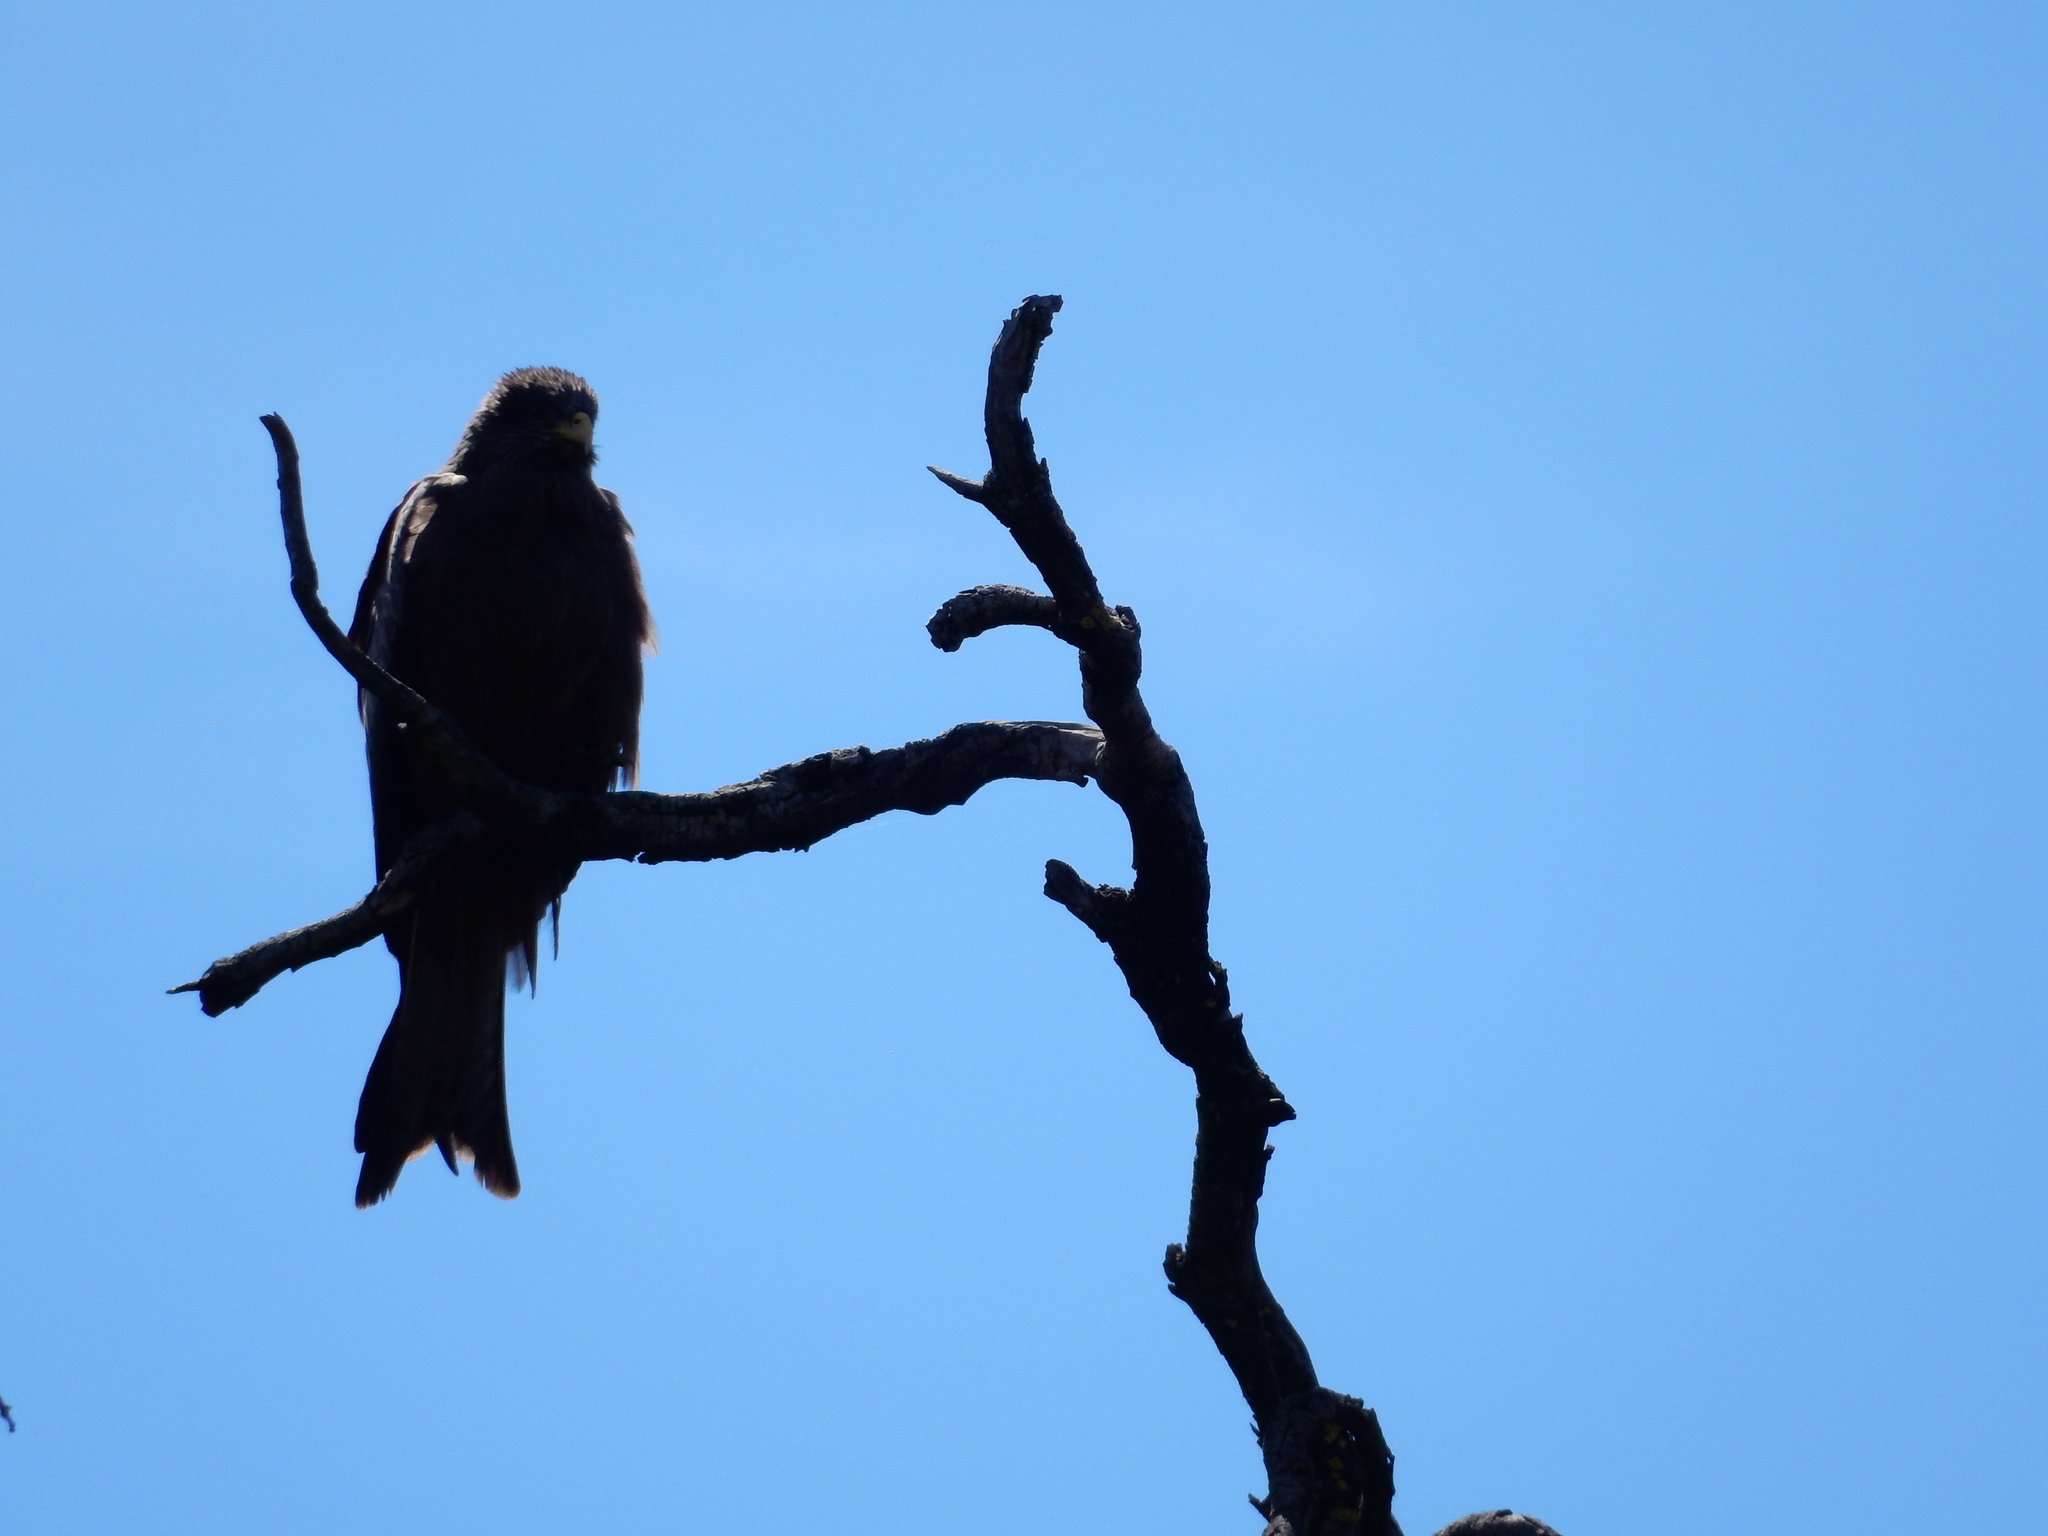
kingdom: Animalia
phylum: Chordata
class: Aves
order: Accipitriformes
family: Accipitridae
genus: Milvus
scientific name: Milvus migrans
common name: Black kite
